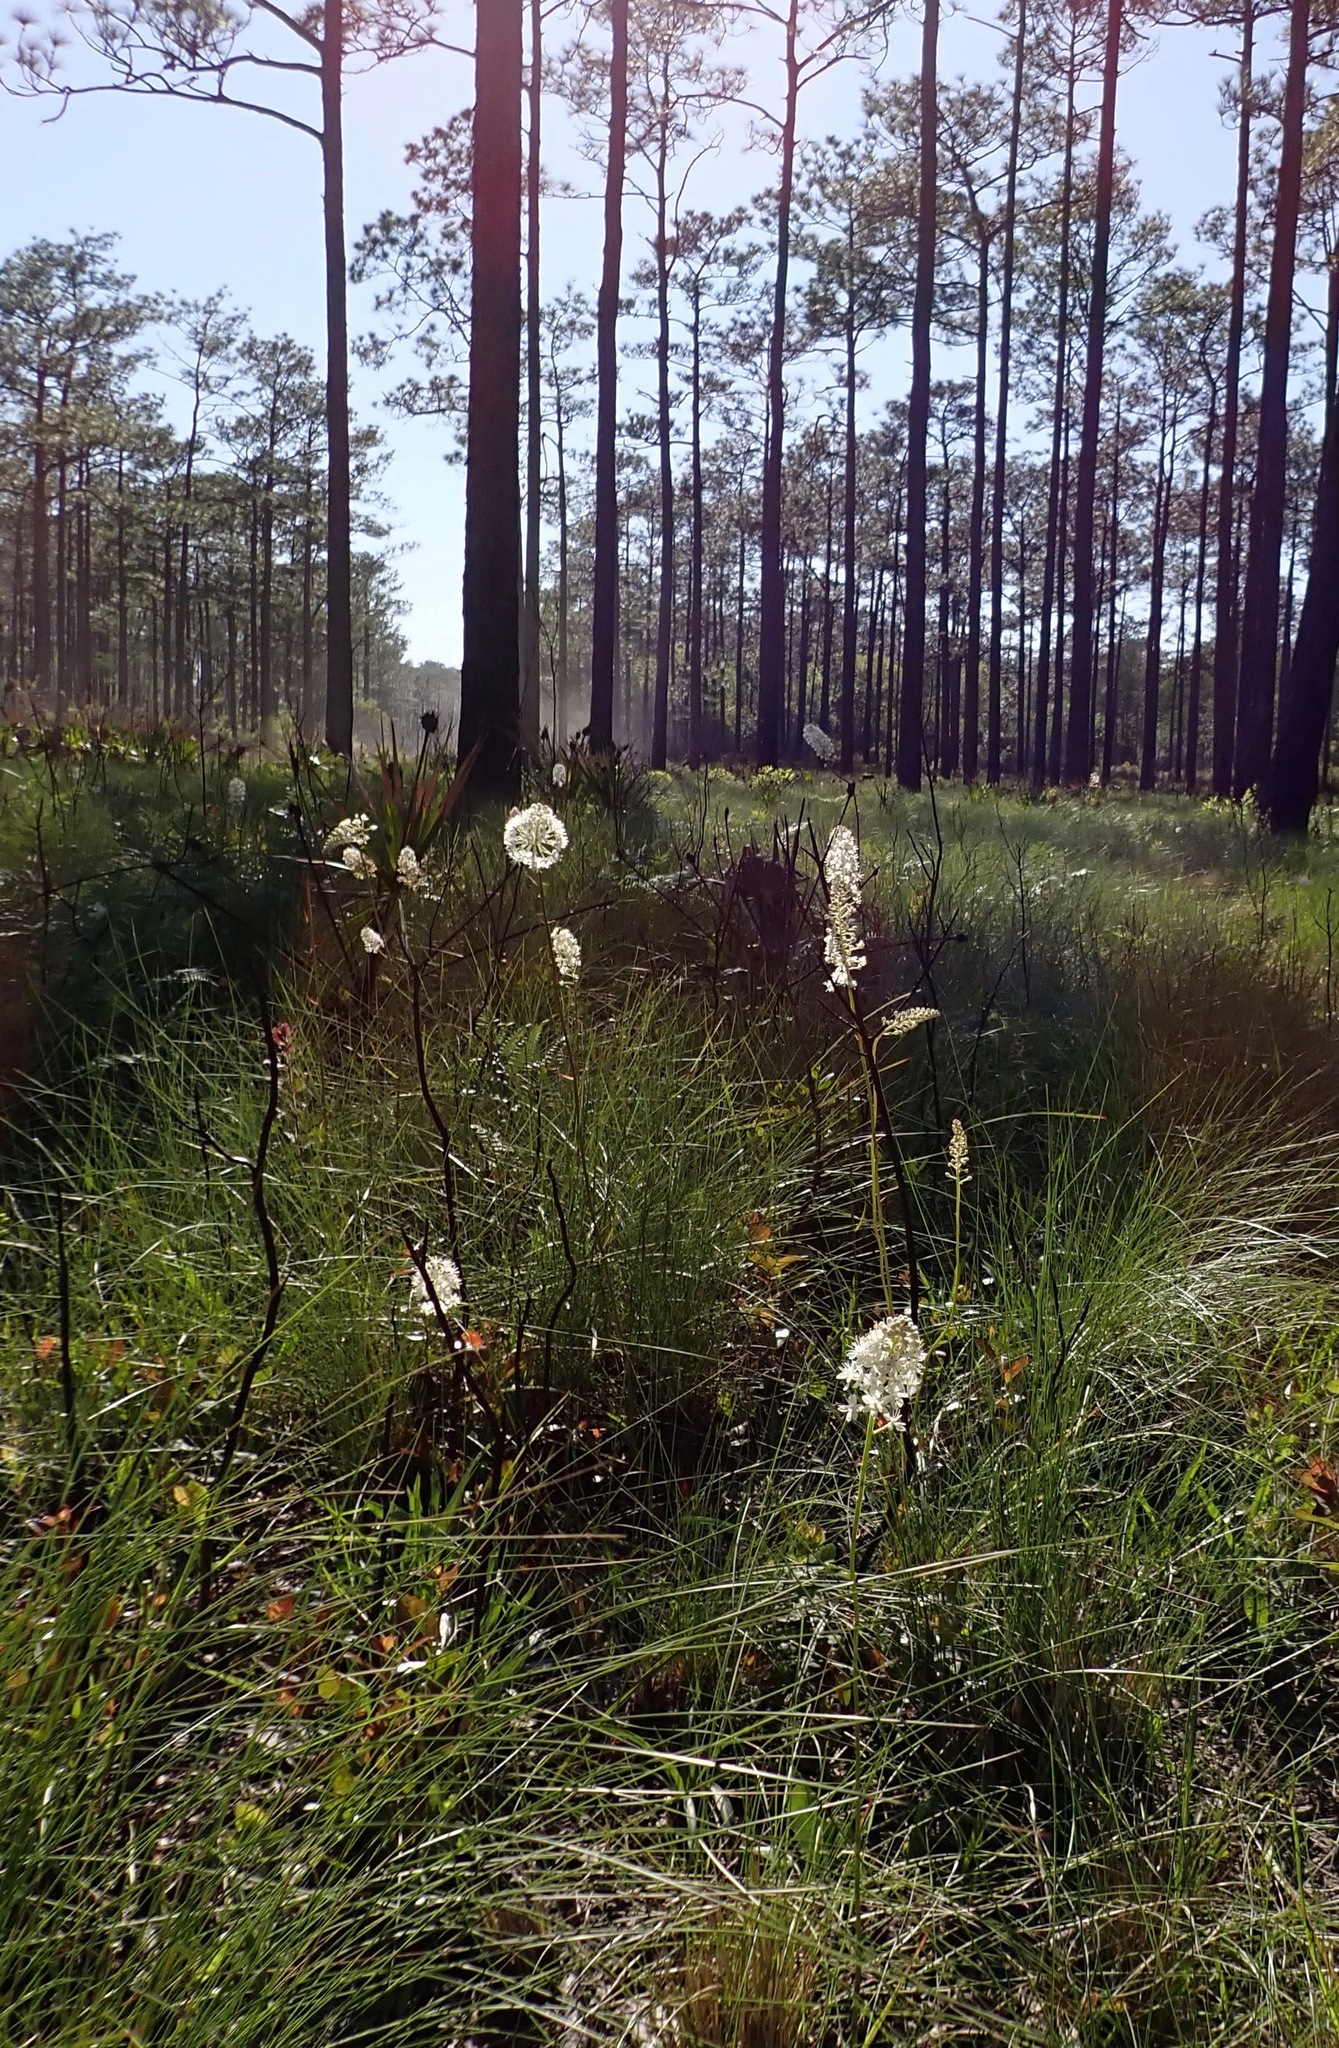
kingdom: Plantae
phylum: Tracheophyta
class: Liliopsida
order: Liliales
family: Melanthiaceae
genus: Stenanthium
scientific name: Stenanthium densum
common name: Crow-poison
